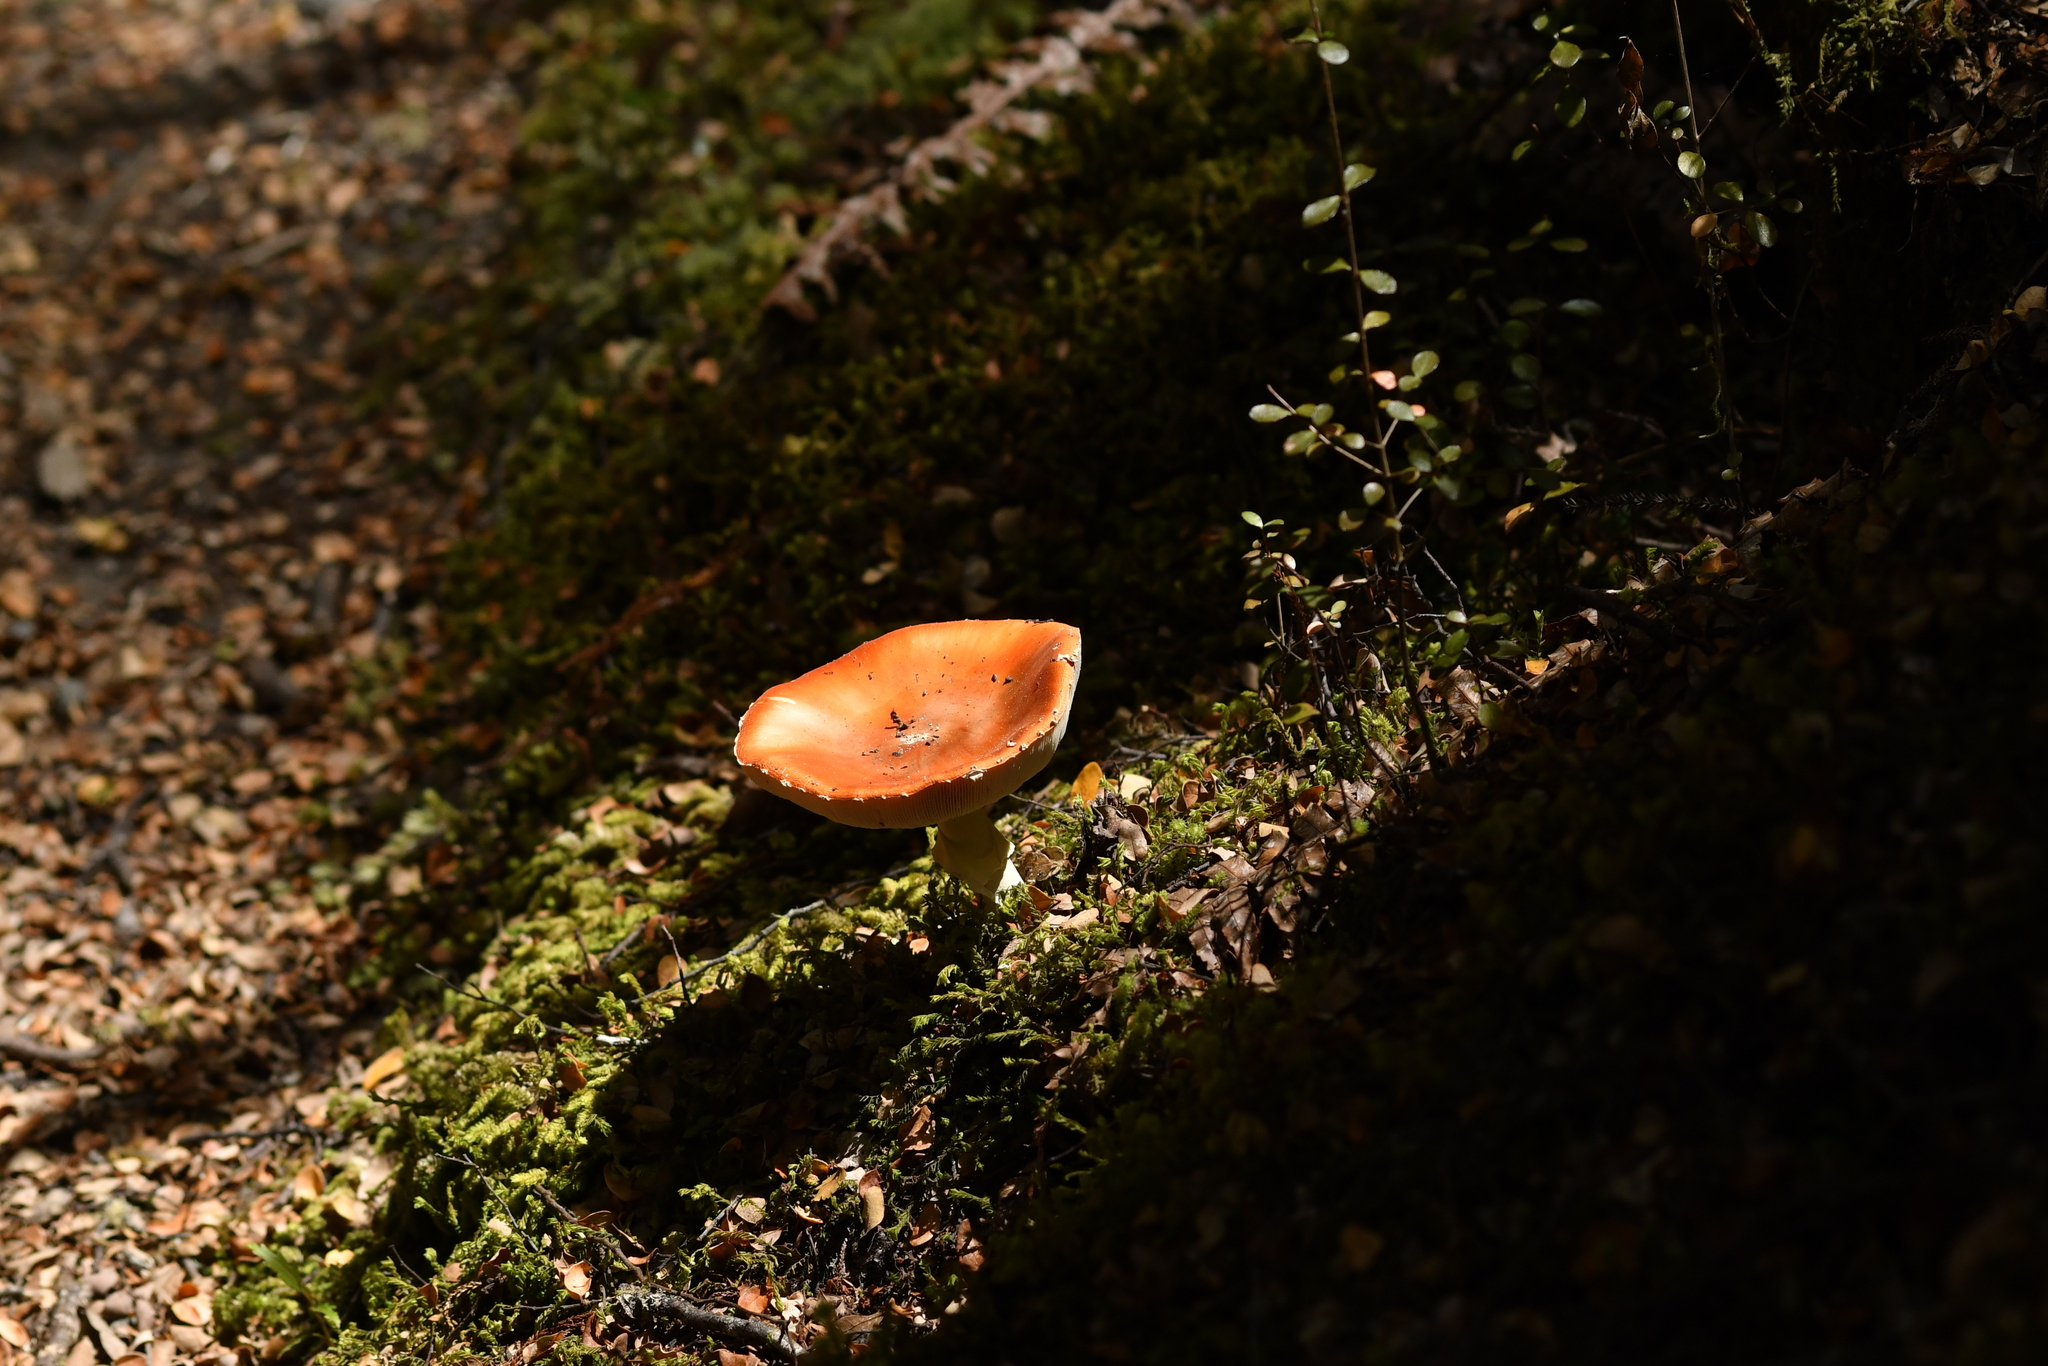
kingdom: Fungi
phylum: Basidiomycota
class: Agaricomycetes
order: Agaricales
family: Amanitaceae
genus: Amanita
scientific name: Amanita muscaria
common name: Fly agaric
